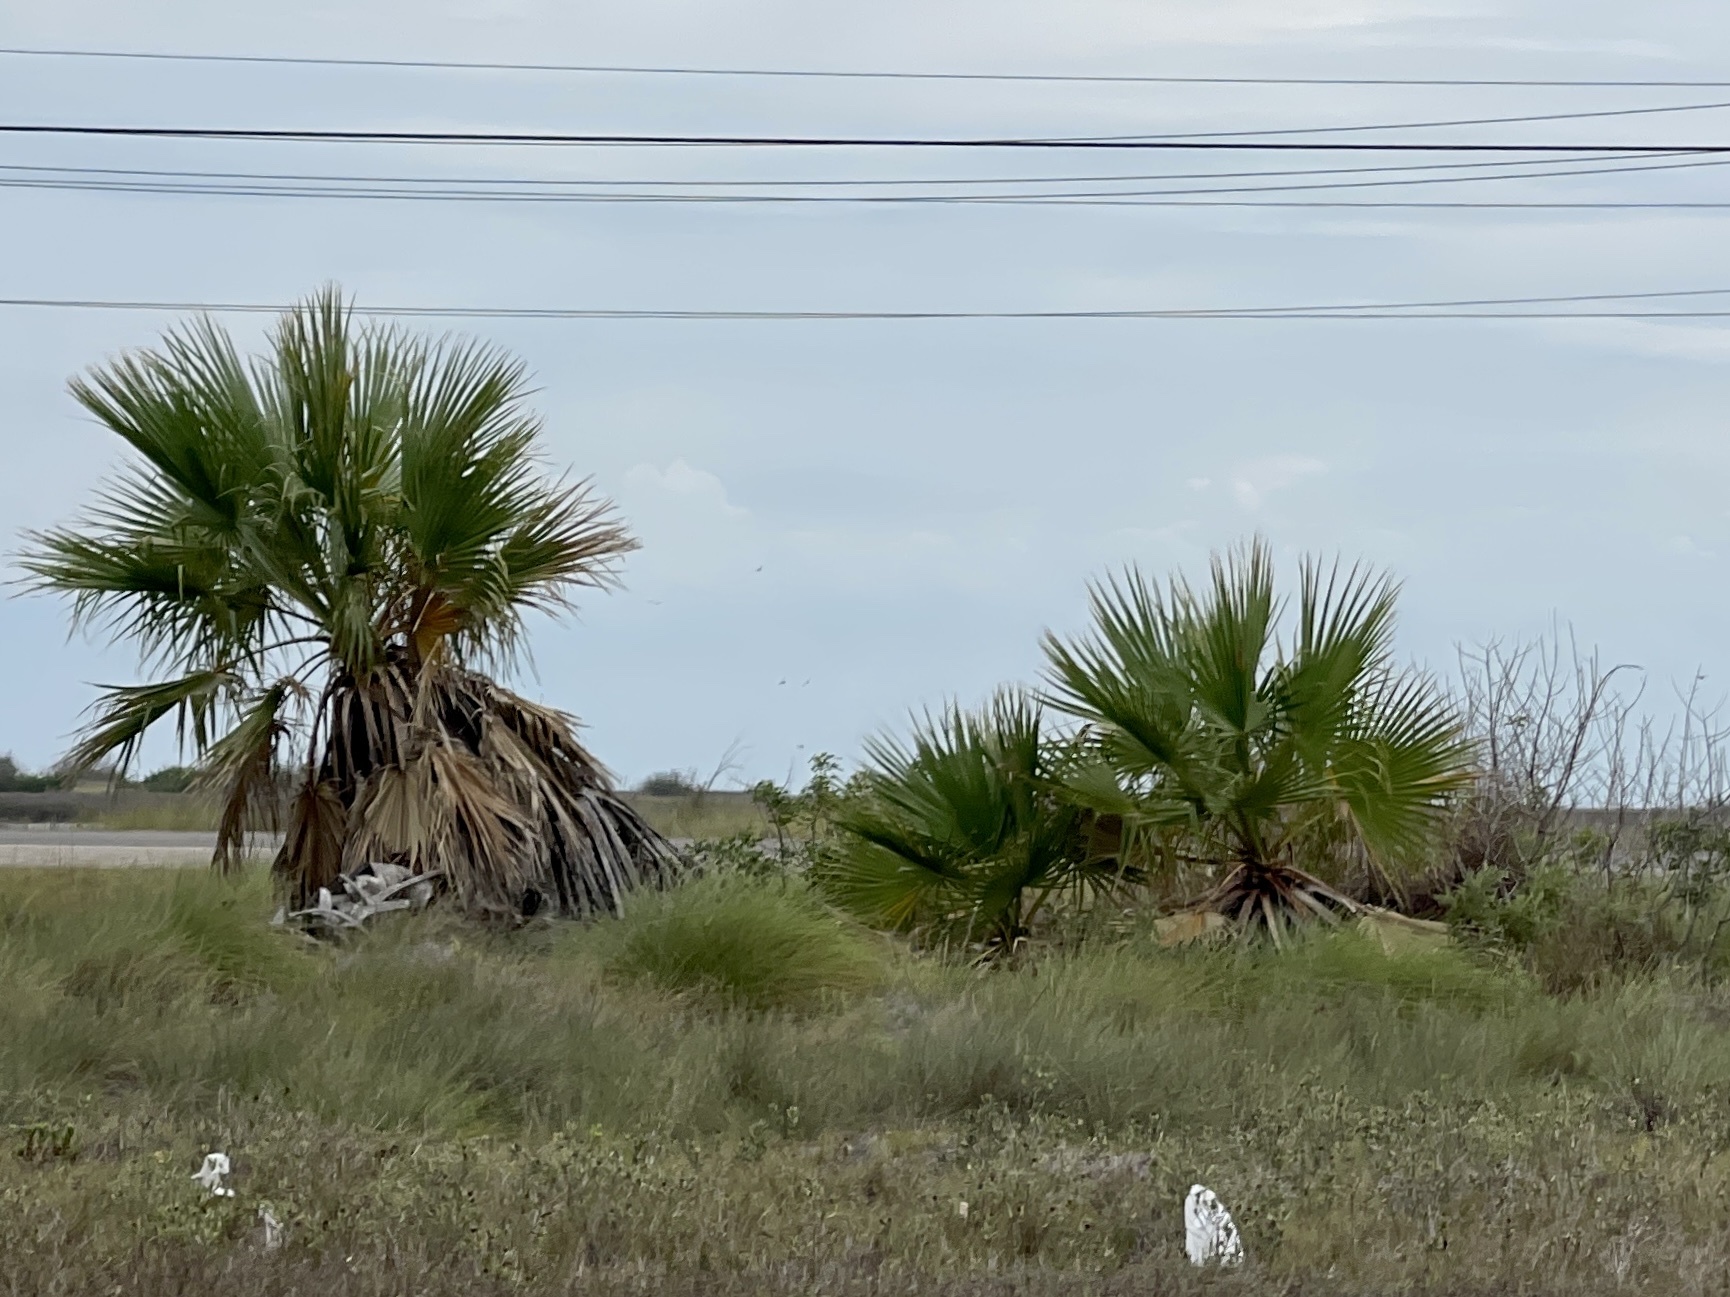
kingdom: Plantae
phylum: Tracheophyta
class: Liliopsida
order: Arecales
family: Arecaceae
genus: Washingtonia
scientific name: Washingtonia robusta
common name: Mexican fan palm
